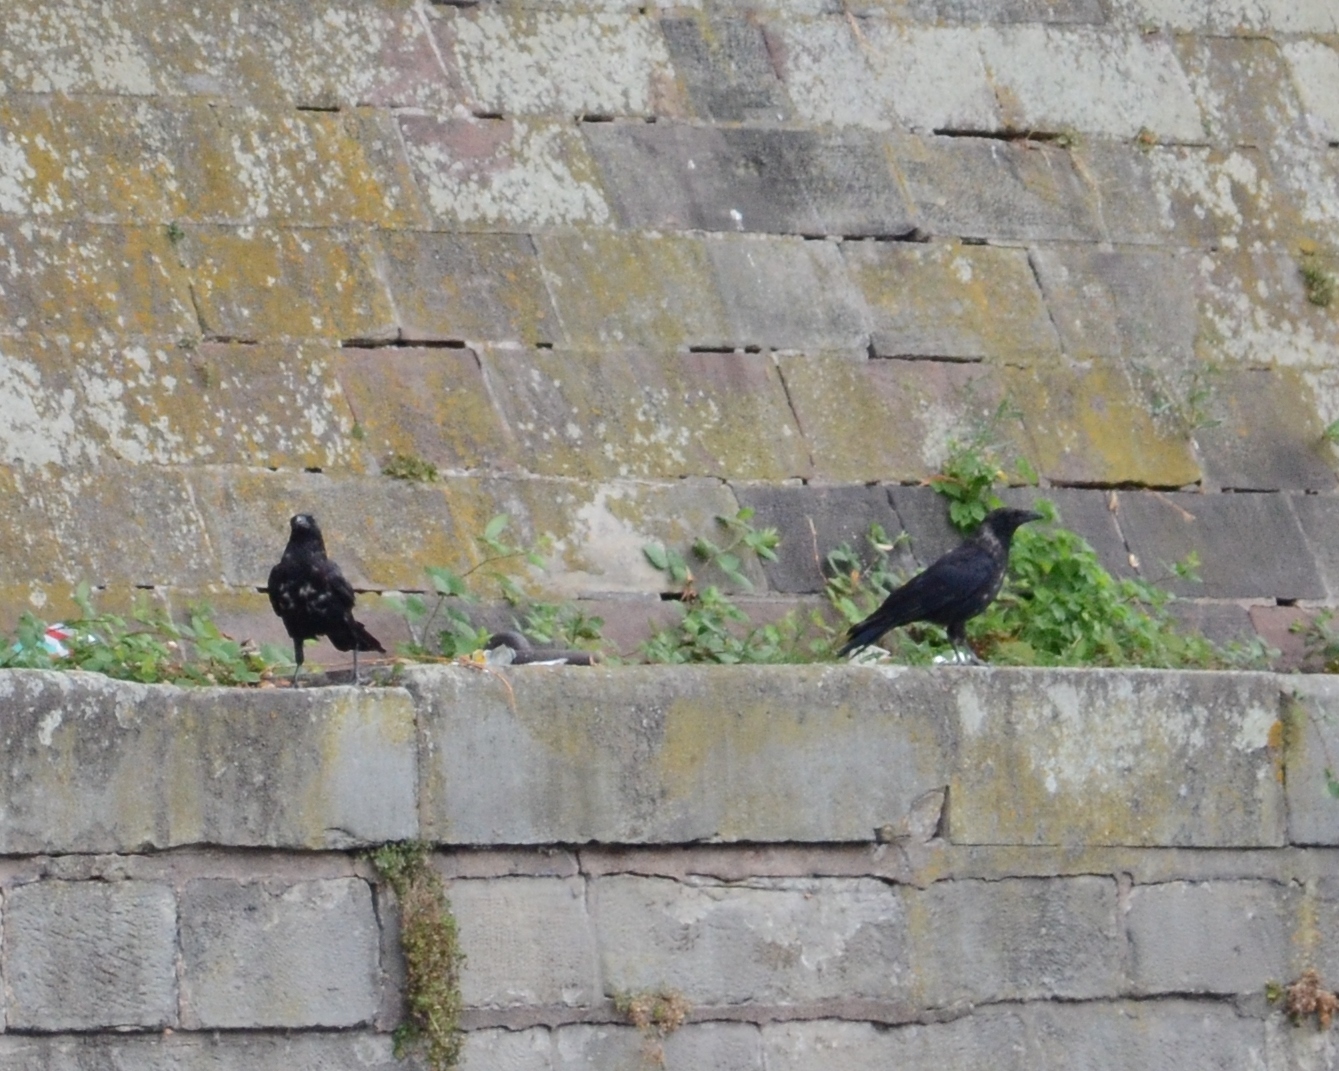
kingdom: Animalia
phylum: Chordata
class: Aves
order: Passeriformes
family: Corvidae
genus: Corvus
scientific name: Corvus corone
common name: Carrion crow
